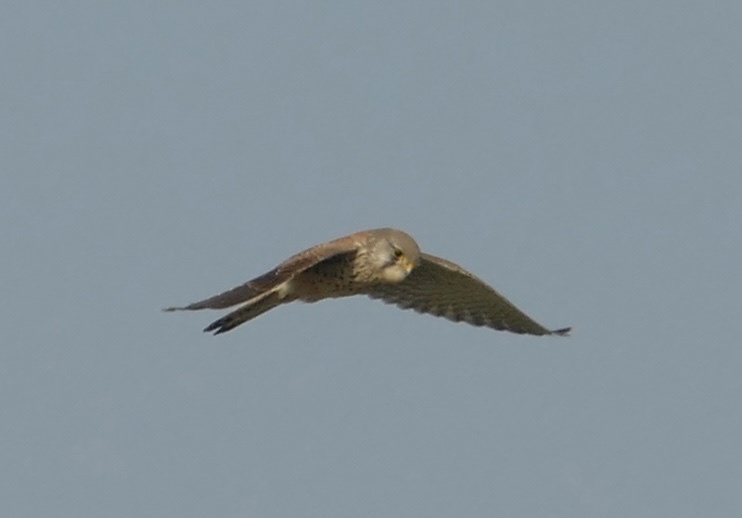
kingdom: Animalia
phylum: Chordata
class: Aves
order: Falconiformes
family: Falconidae
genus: Falco
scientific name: Falco tinnunculus
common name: Common kestrel
